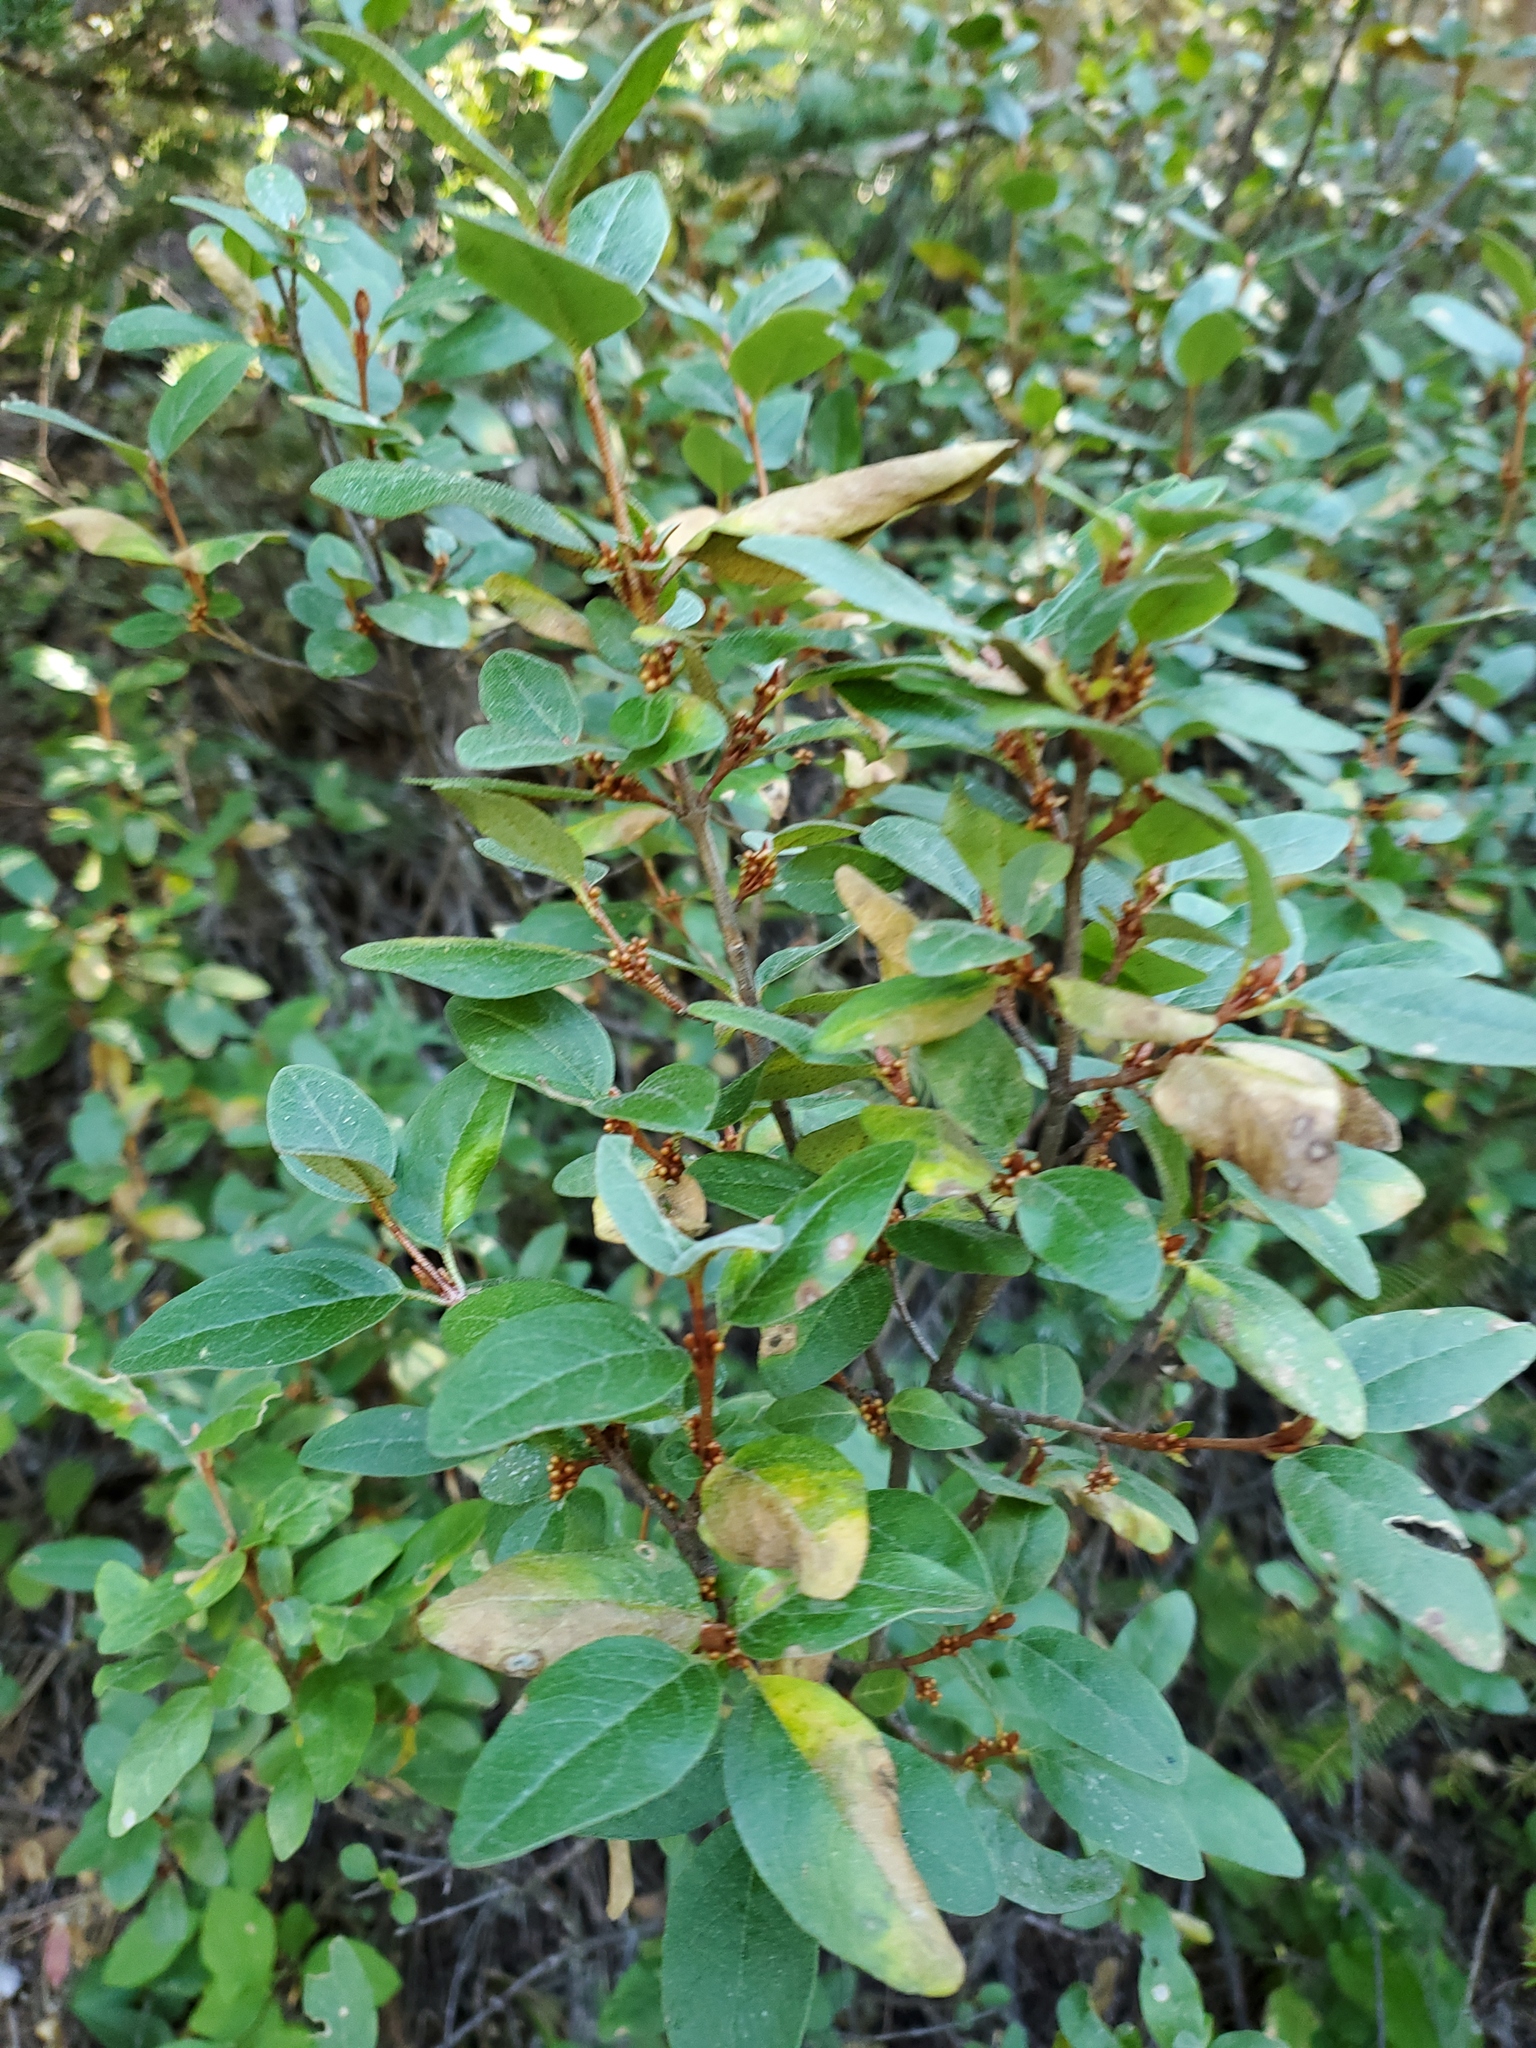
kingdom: Plantae
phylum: Tracheophyta
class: Magnoliopsida
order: Rosales
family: Elaeagnaceae
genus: Shepherdia
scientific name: Shepherdia canadensis
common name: Soapberry
